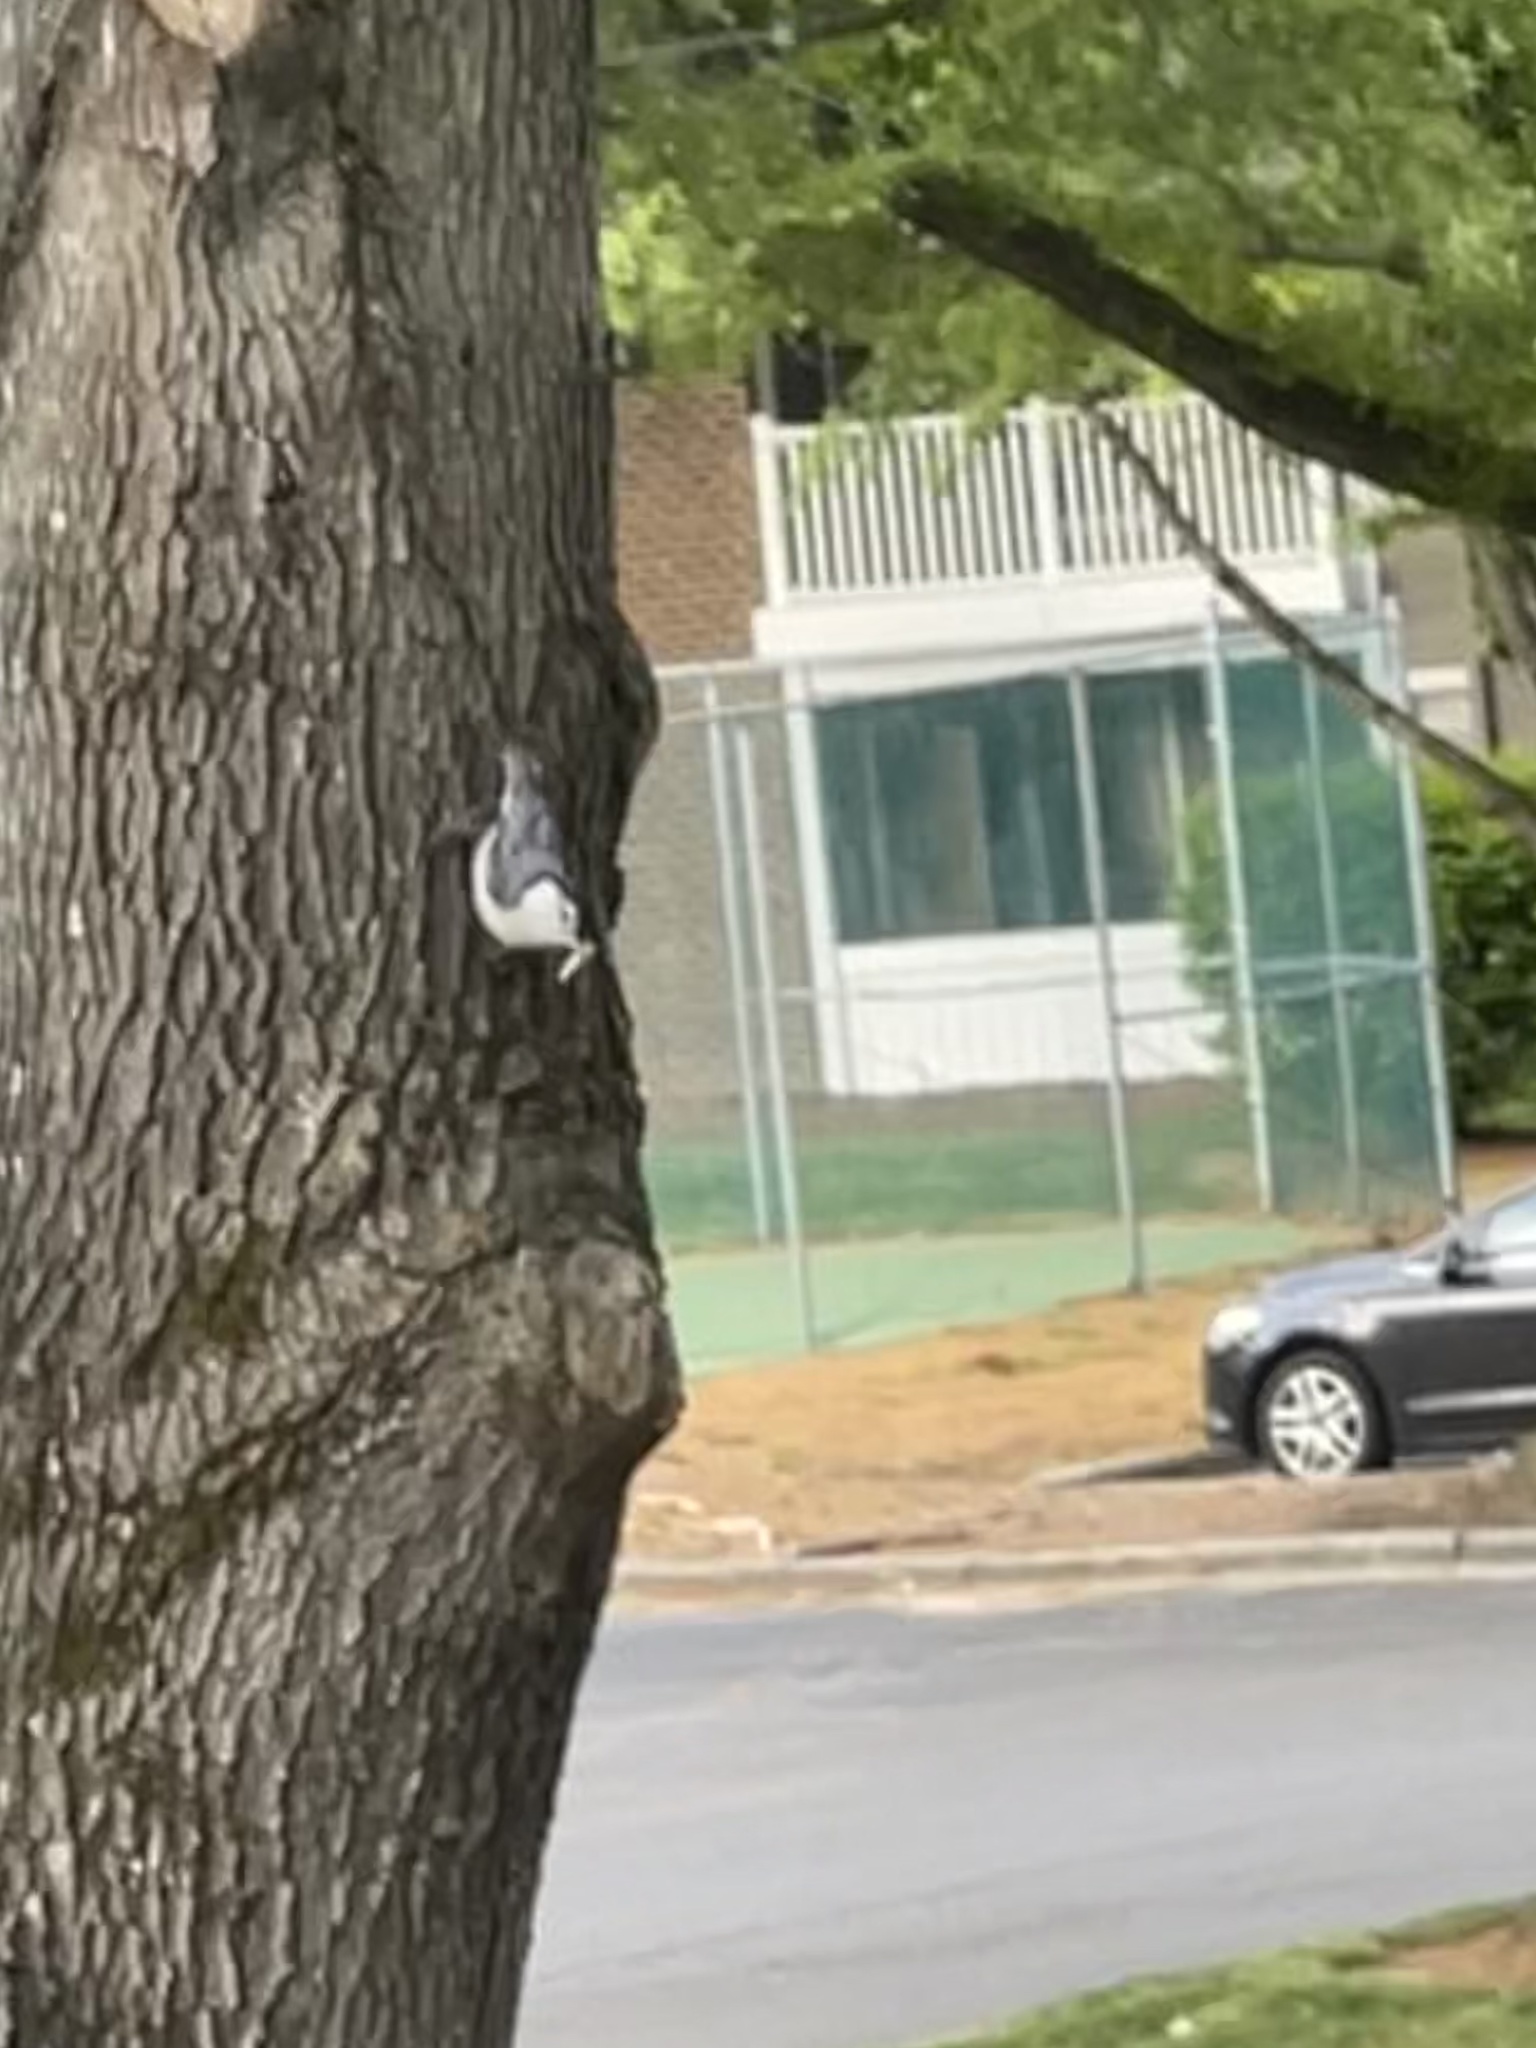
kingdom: Animalia
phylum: Chordata
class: Aves
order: Passeriformes
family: Sittidae
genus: Sitta
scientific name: Sitta carolinensis
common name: White-breasted nuthatch
